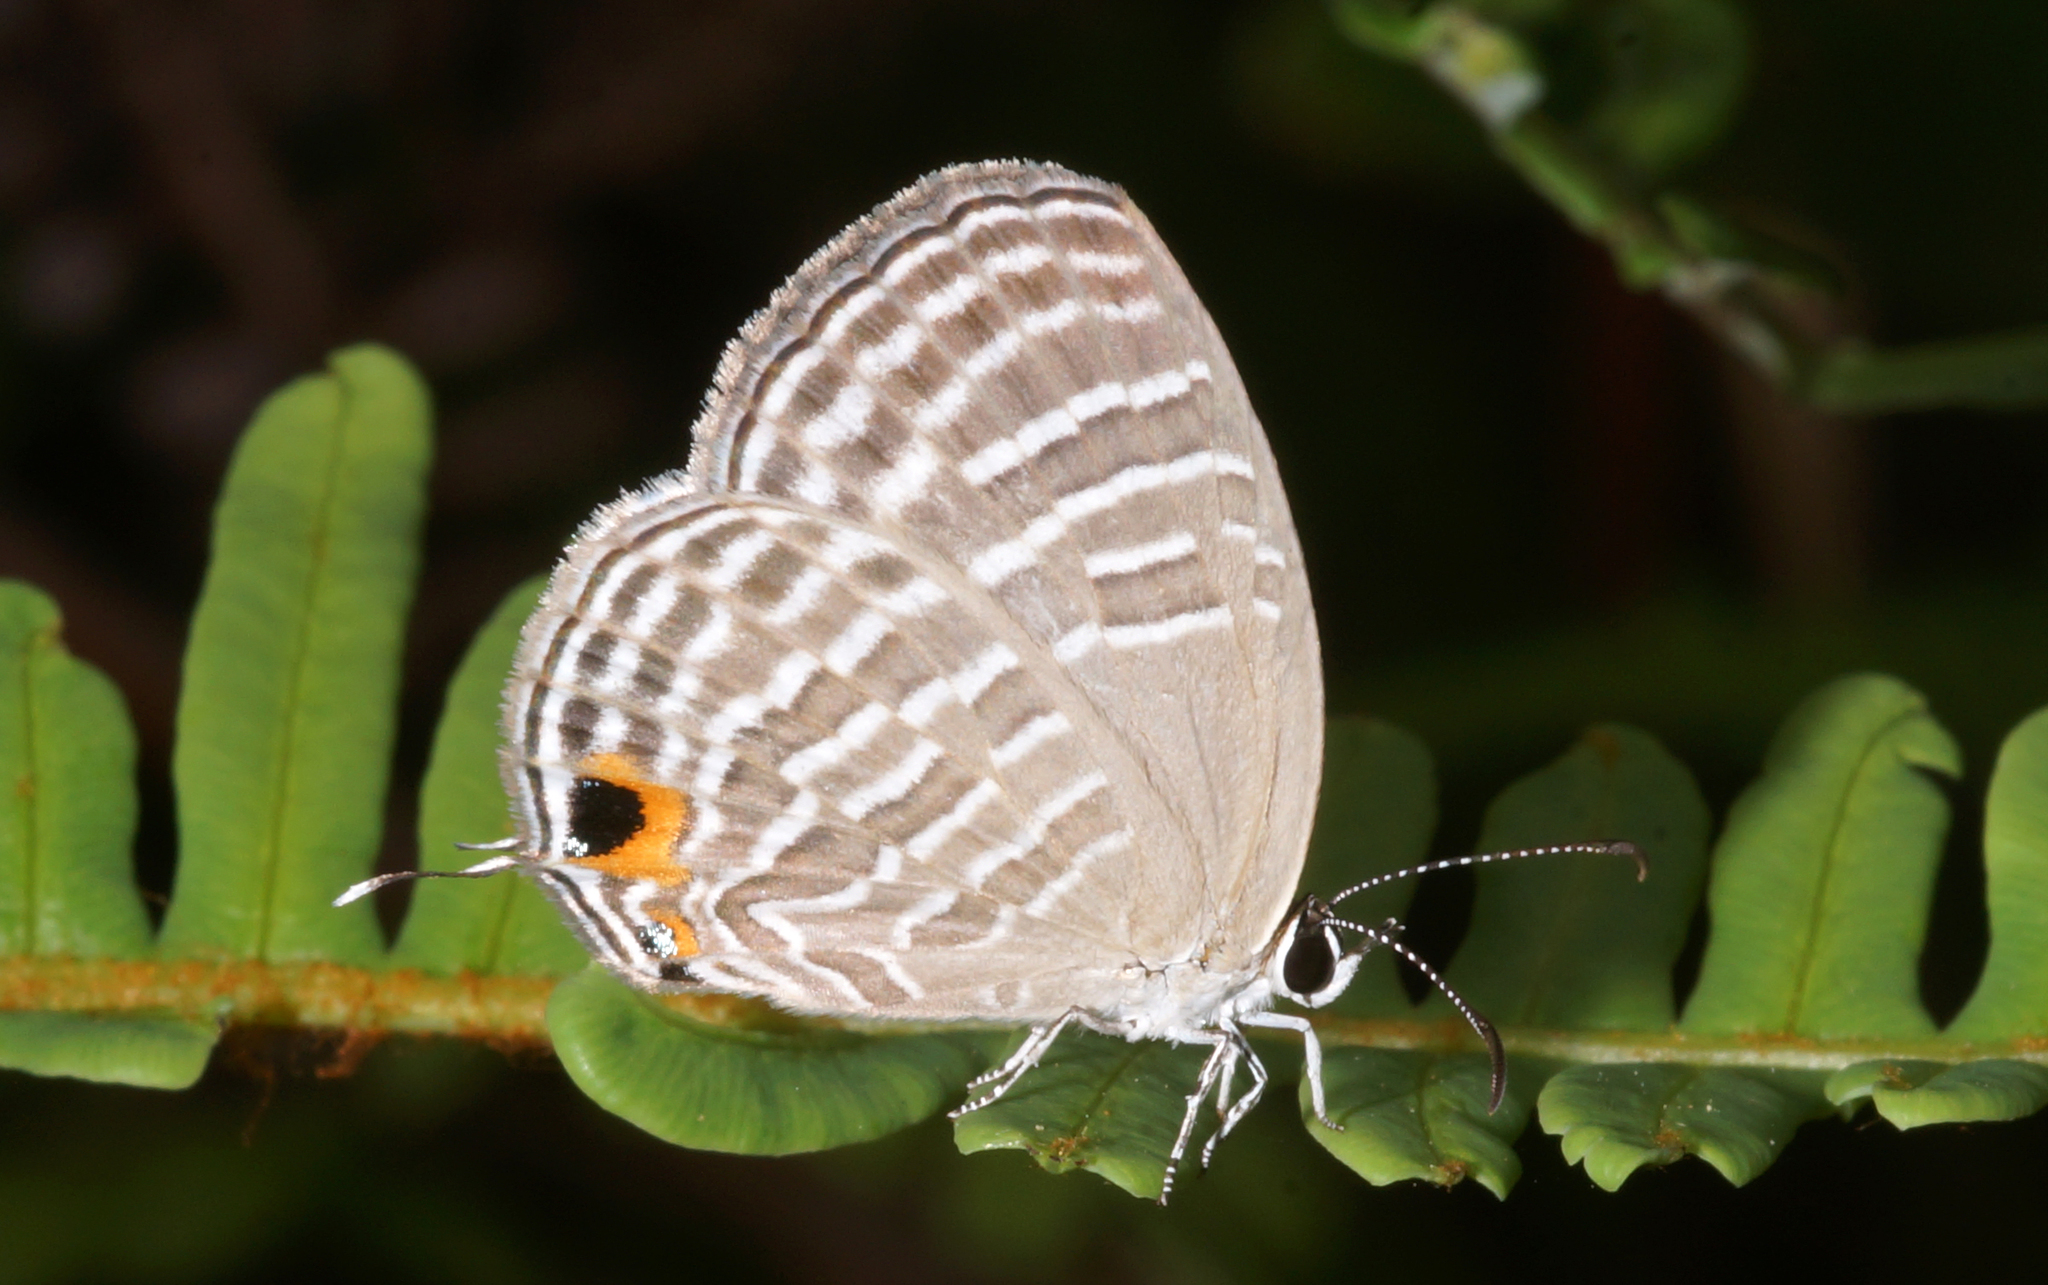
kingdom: Animalia
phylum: Arthropoda
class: Insecta
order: Lepidoptera
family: Lycaenidae
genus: Jamides
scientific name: Jamides celeno
